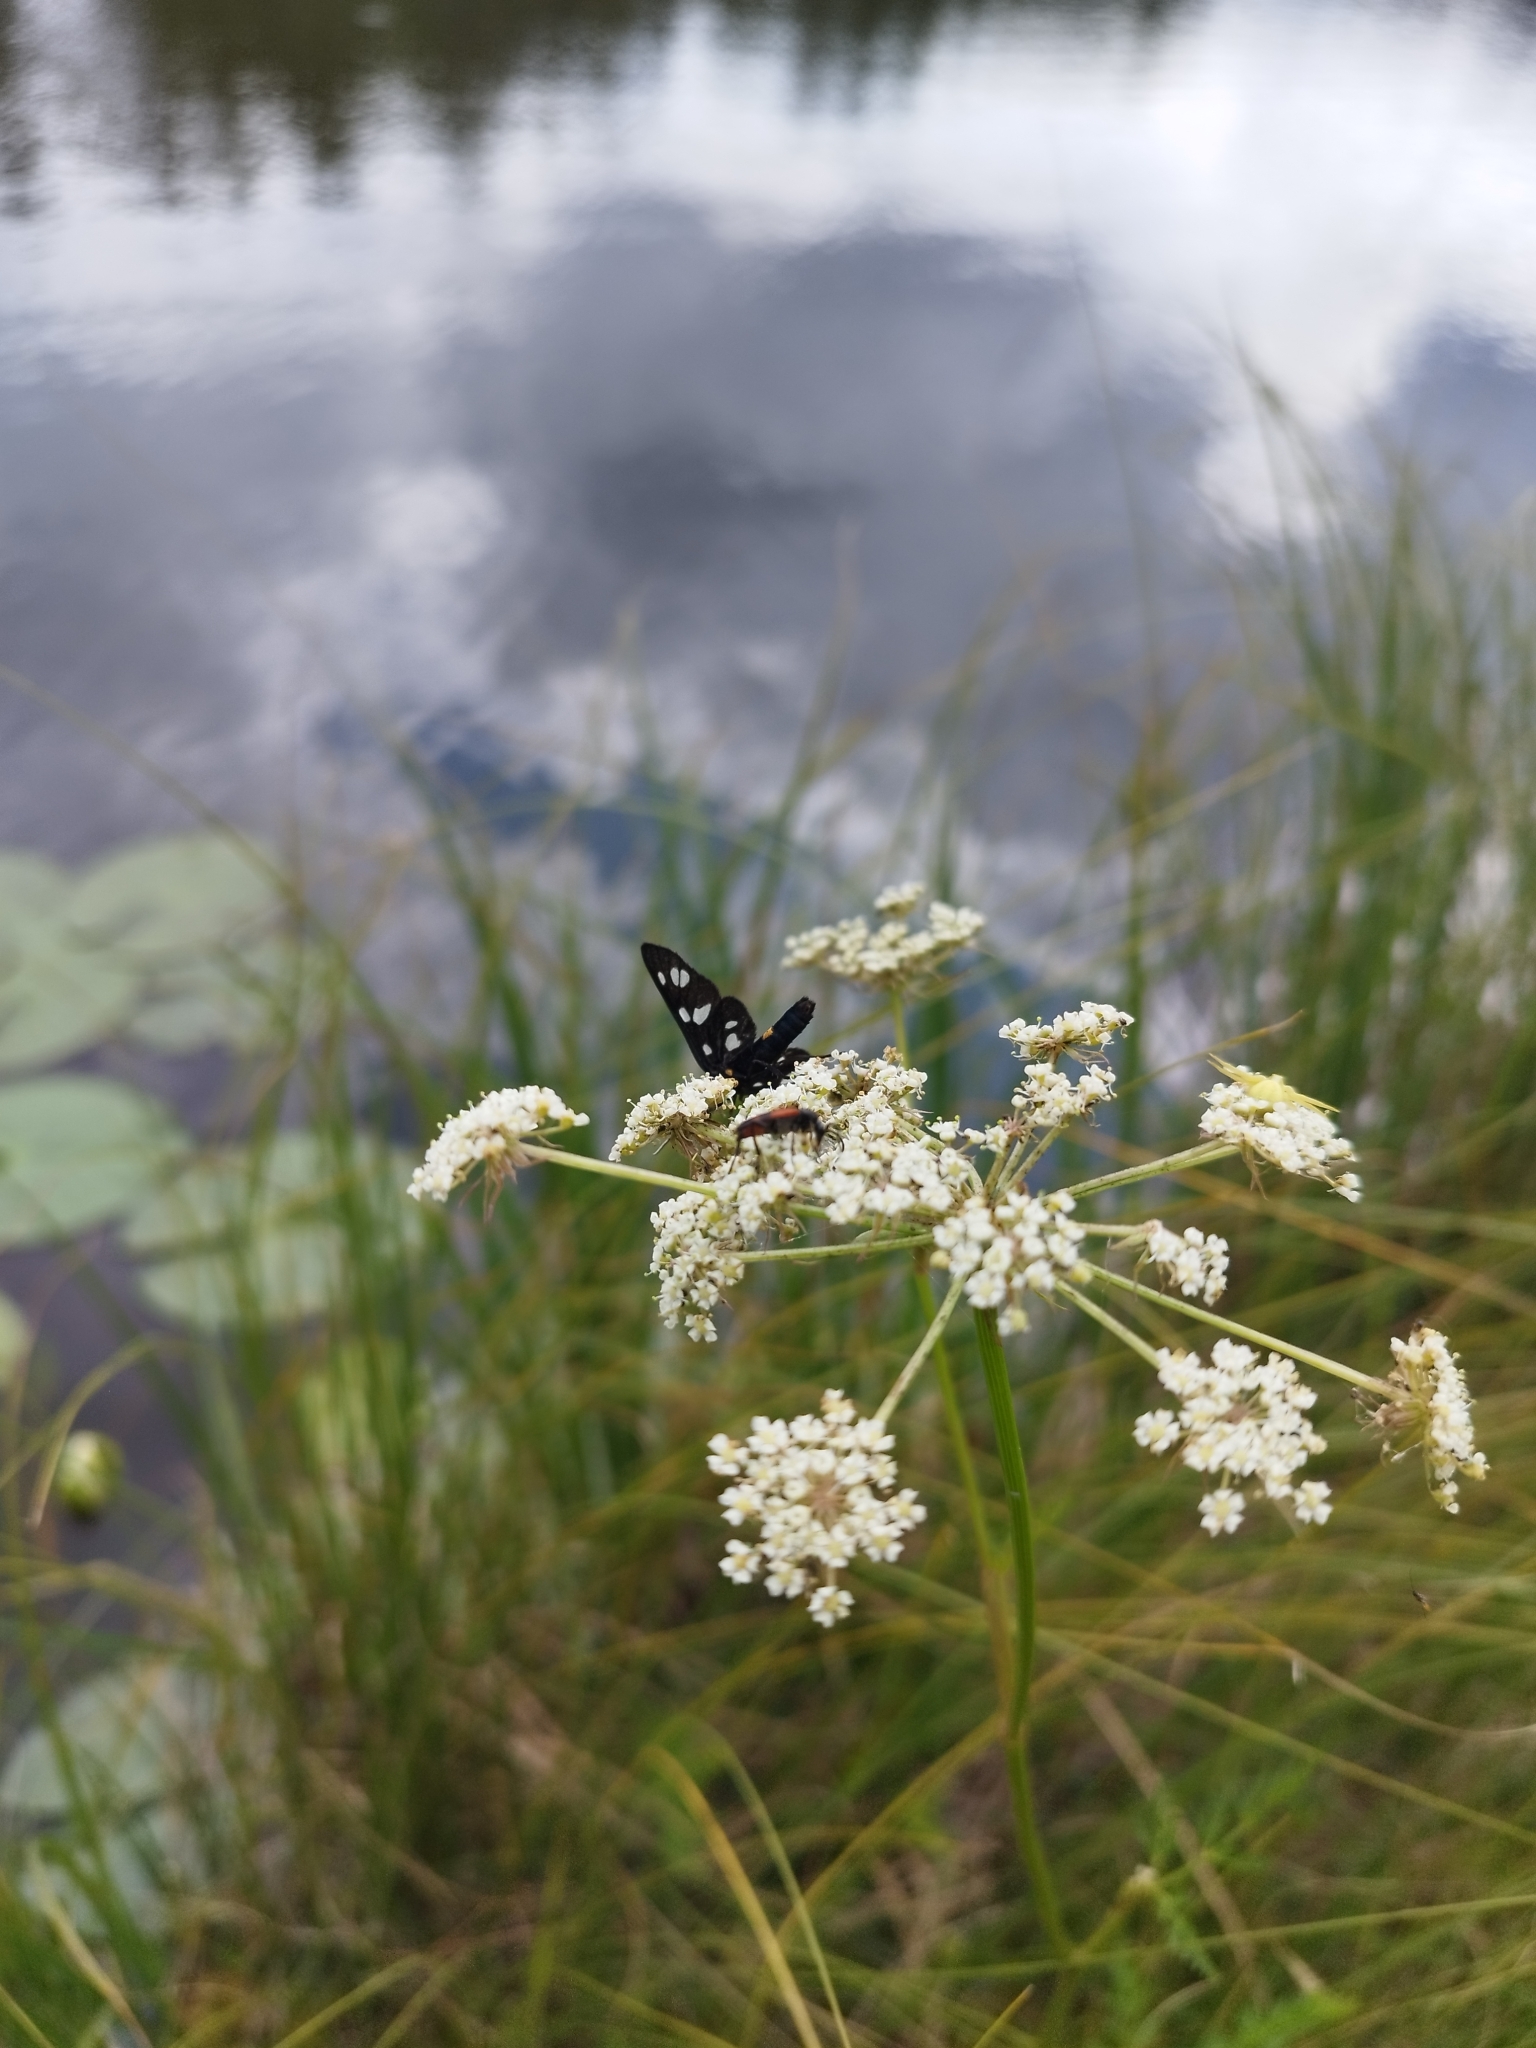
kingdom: Animalia
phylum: Arthropoda
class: Insecta
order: Lepidoptera
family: Erebidae
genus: Amata
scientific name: Amata nigricornis
